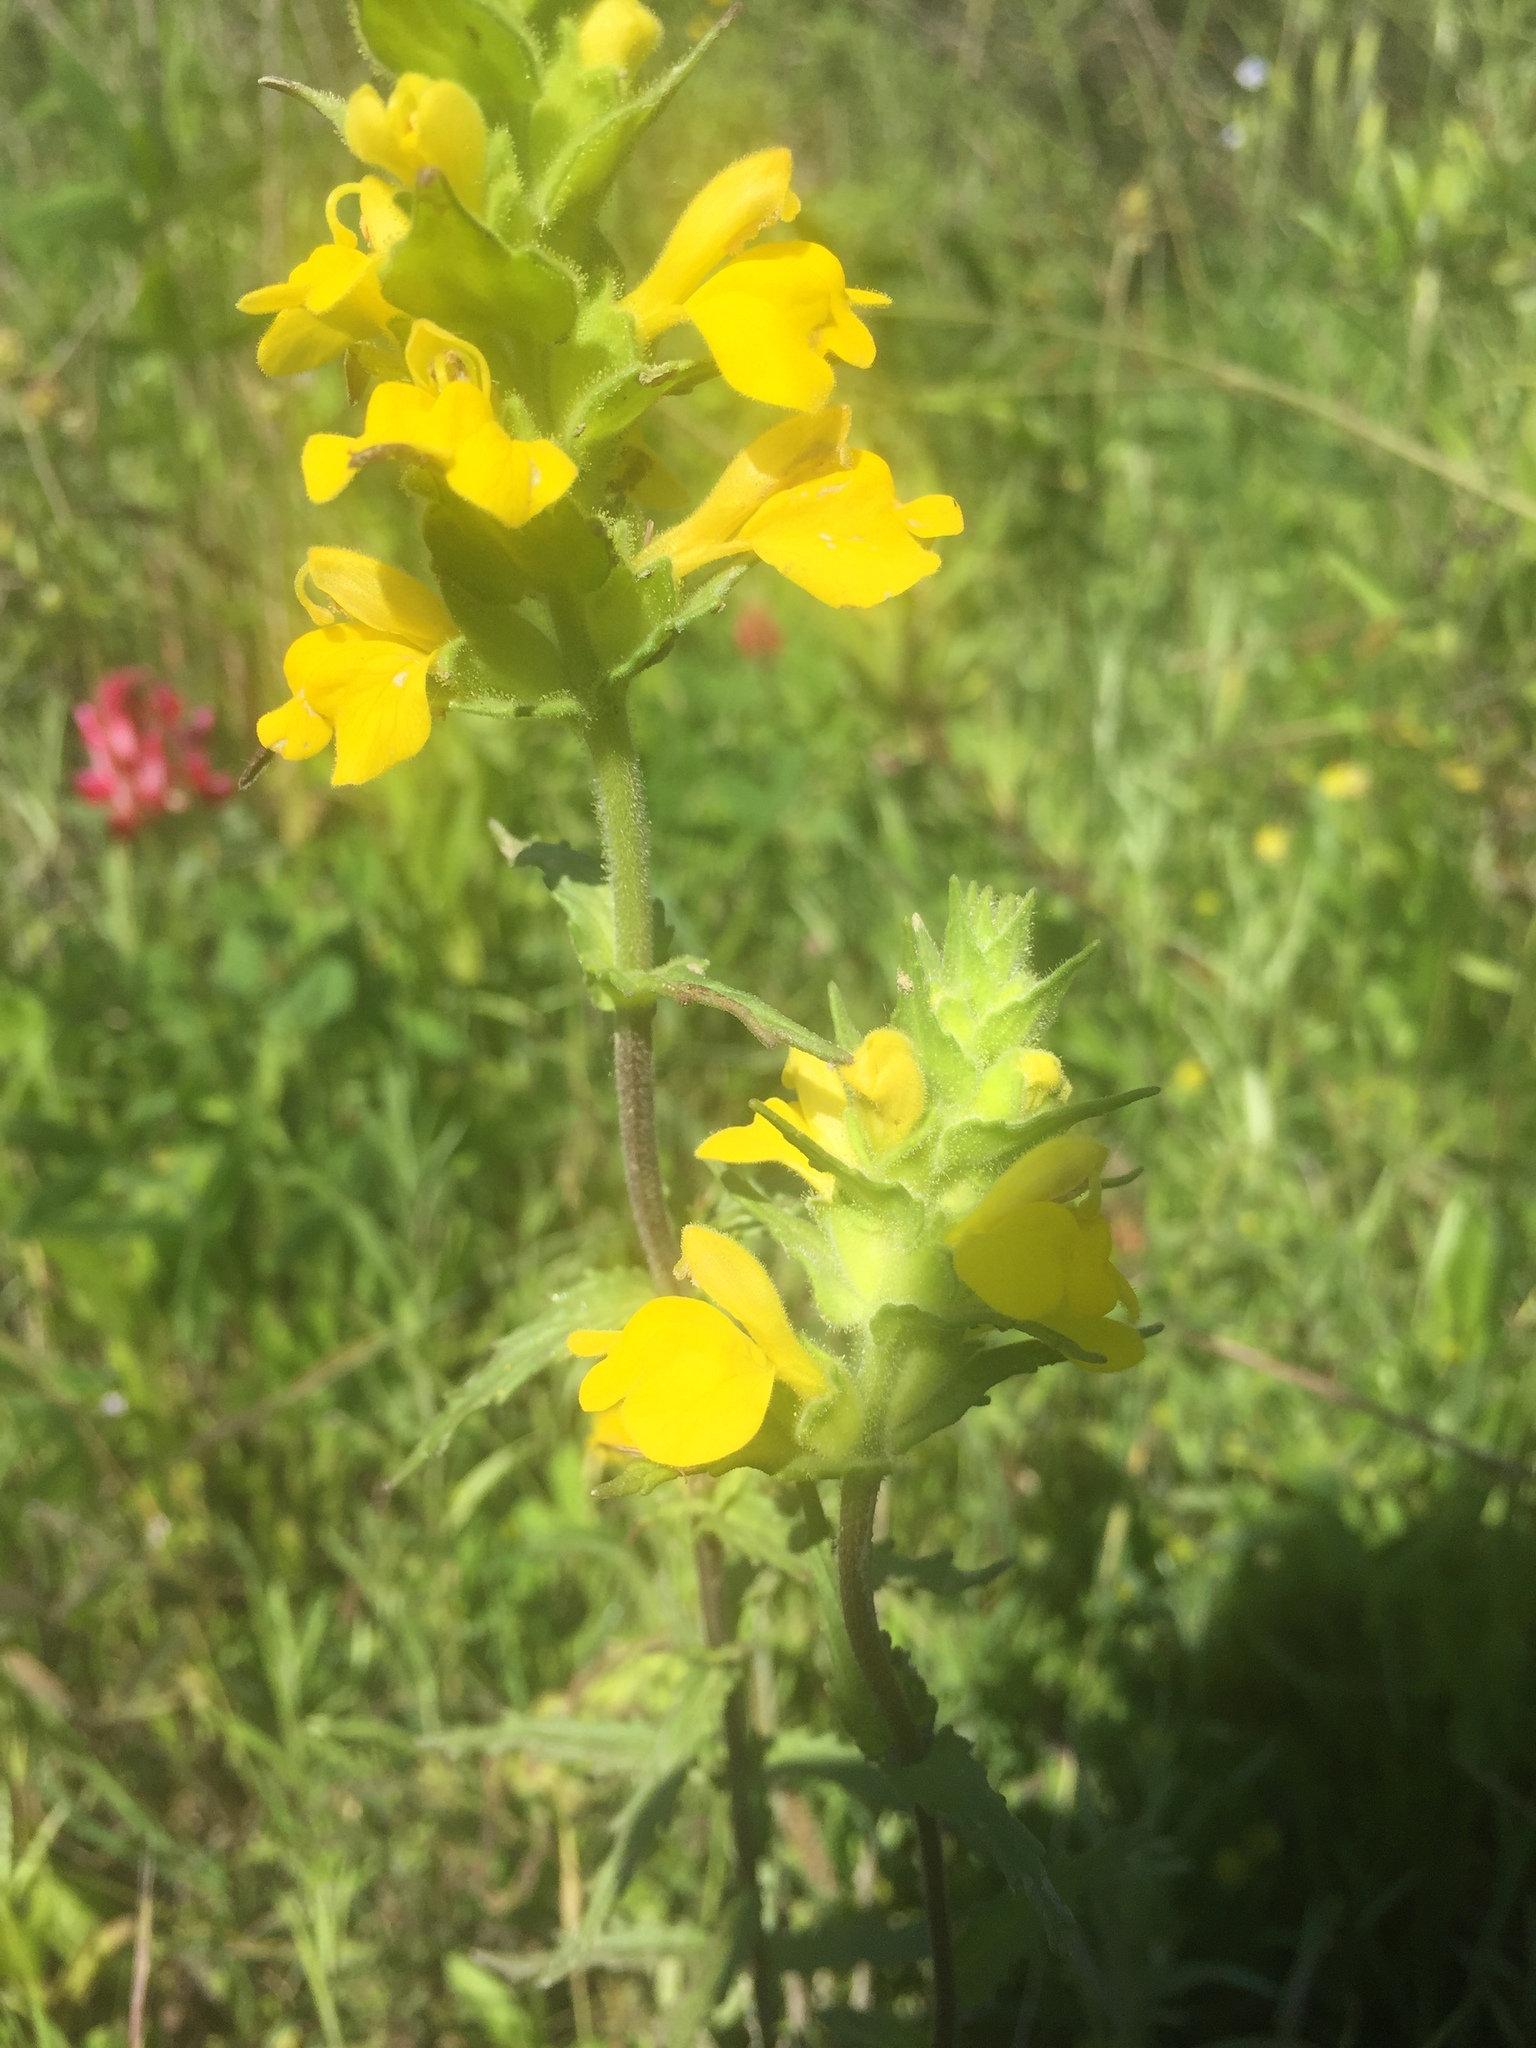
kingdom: Plantae
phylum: Tracheophyta
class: Magnoliopsida
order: Lamiales
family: Orobanchaceae
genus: Bellardia
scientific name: Bellardia trixago
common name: Mediterranean lineseed
